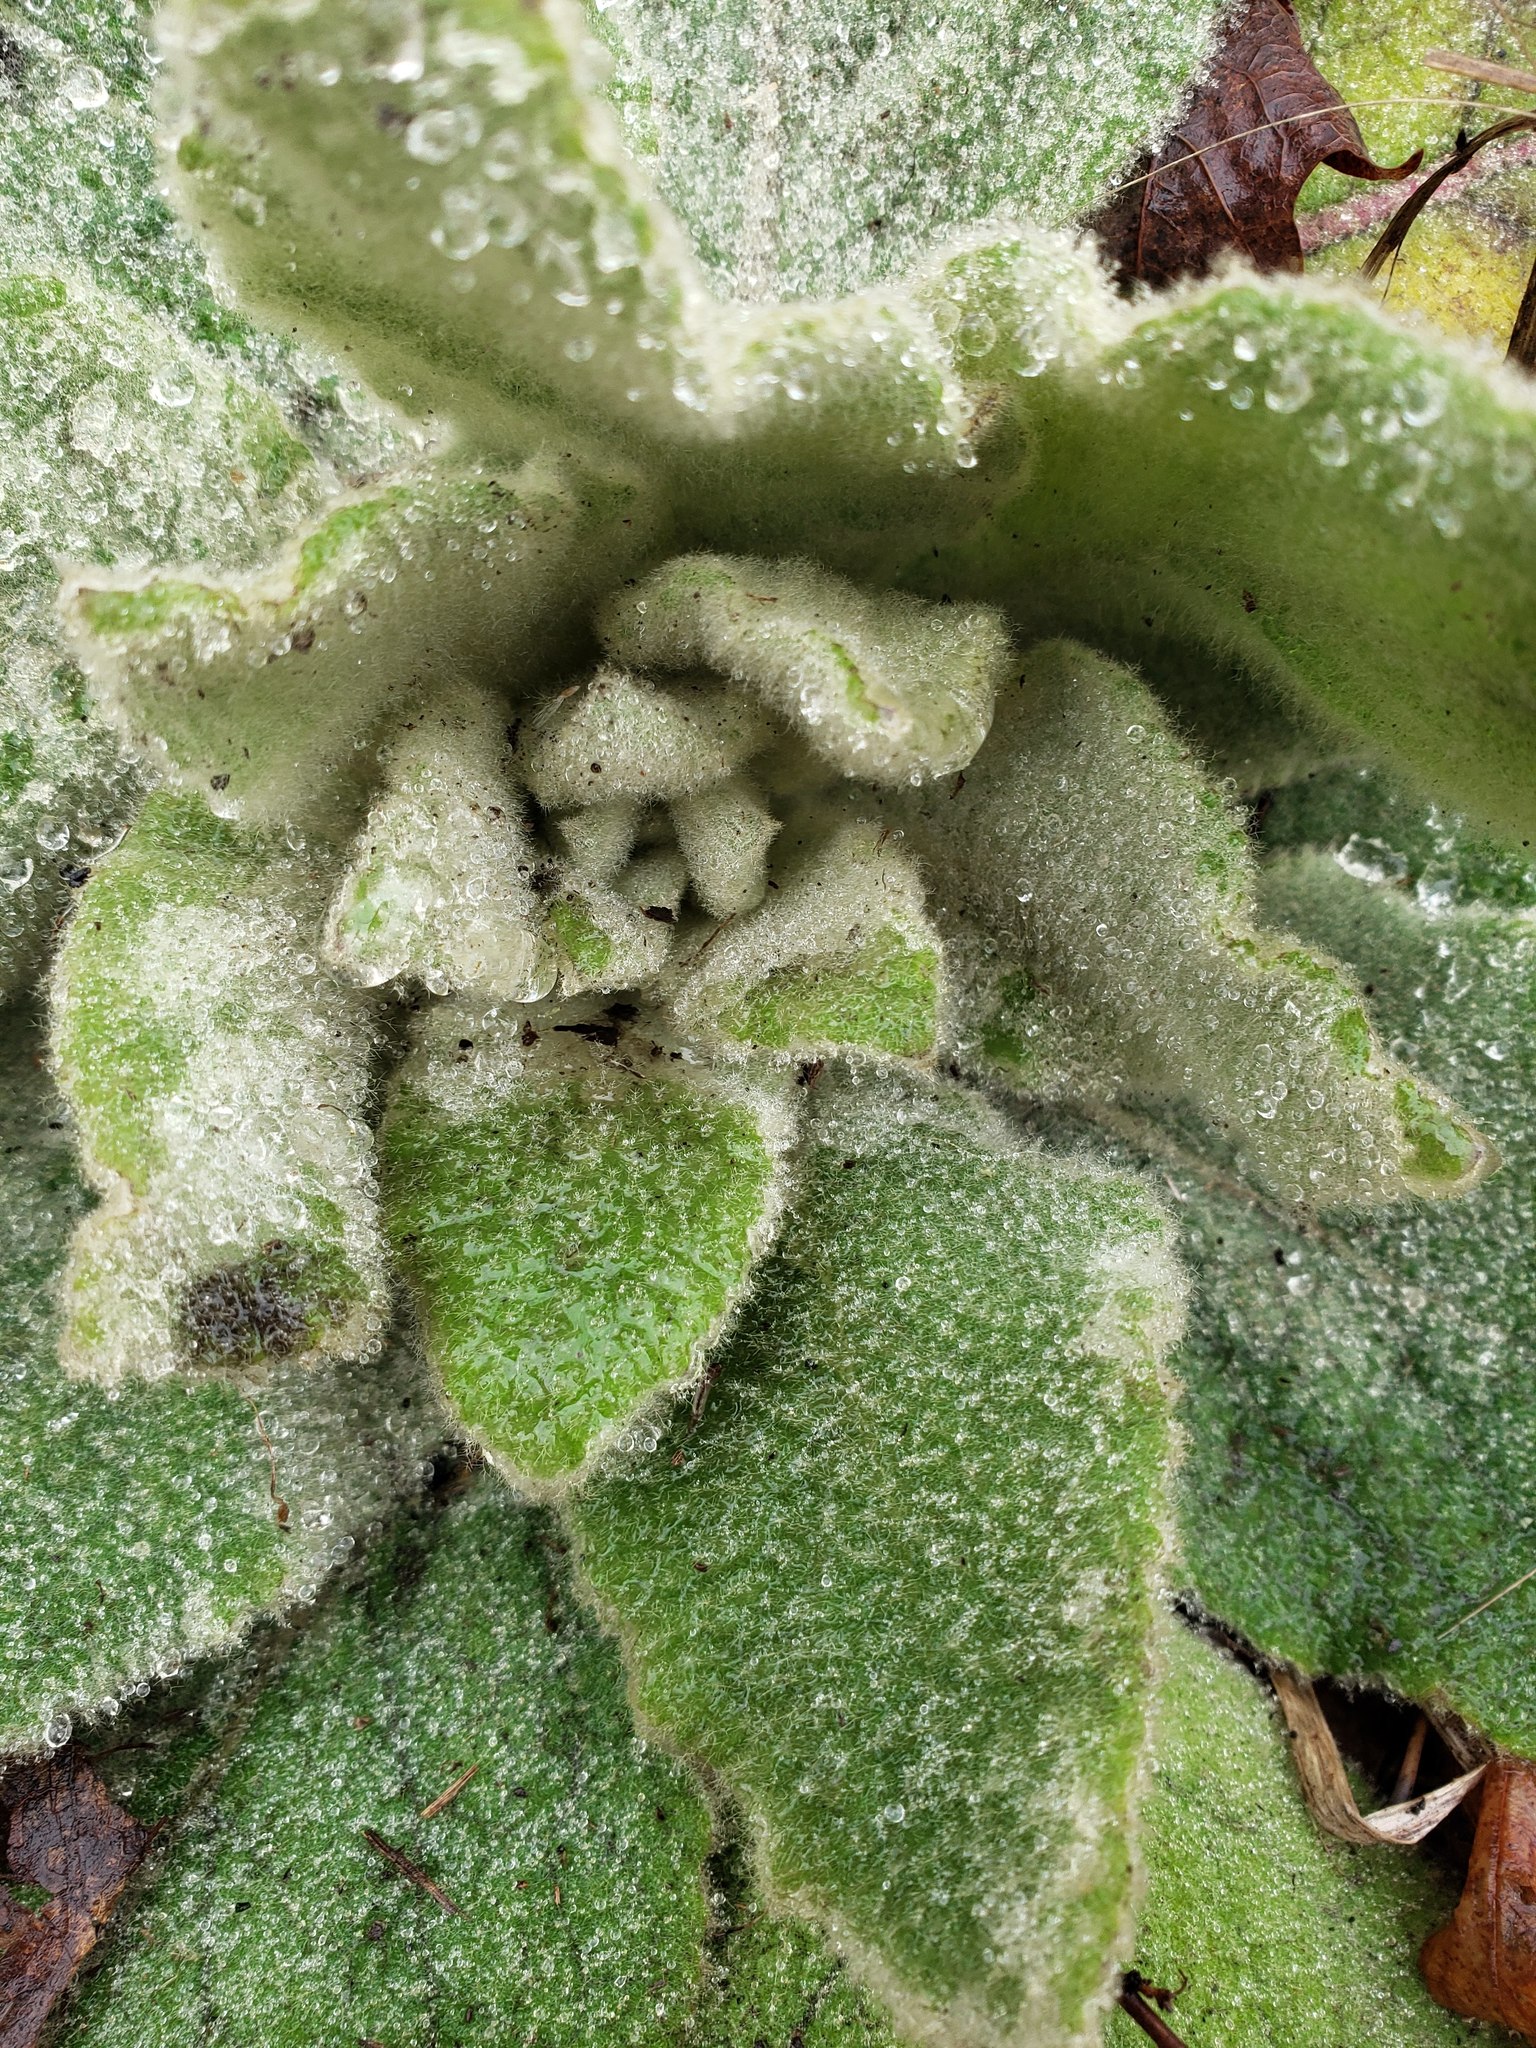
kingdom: Plantae
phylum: Tracheophyta
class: Magnoliopsida
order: Lamiales
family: Scrophulariaceae
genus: Verbascum
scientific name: Verbascum thapsus
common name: Common mullein
